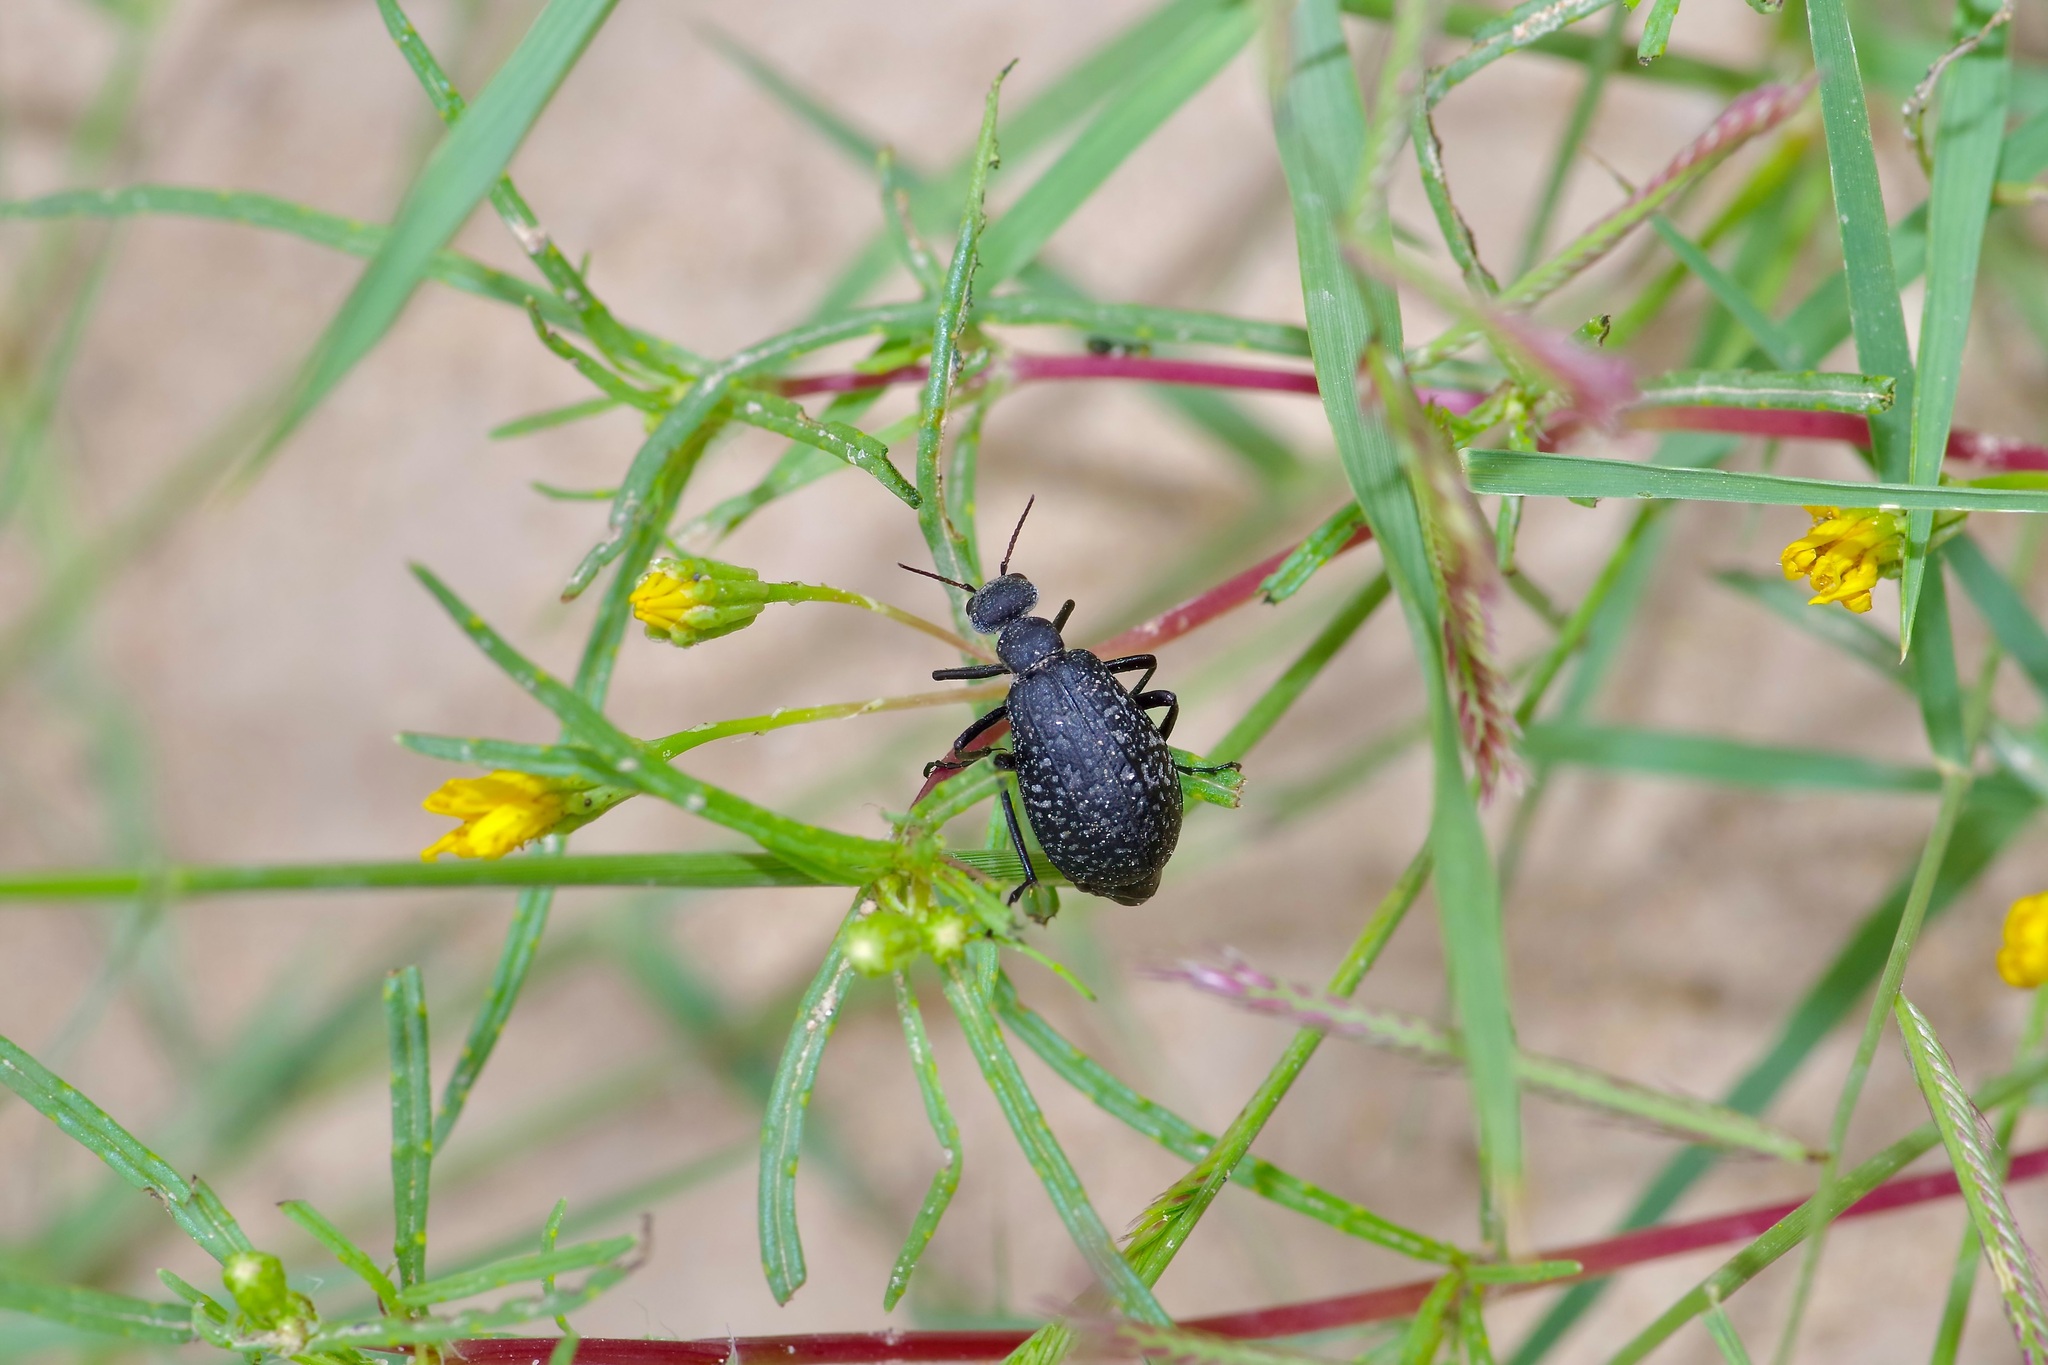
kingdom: Animalia
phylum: Arthropoda
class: Insecta
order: Coleoptera
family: Meloidae
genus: Phodaga
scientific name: Phodaga marmorata
